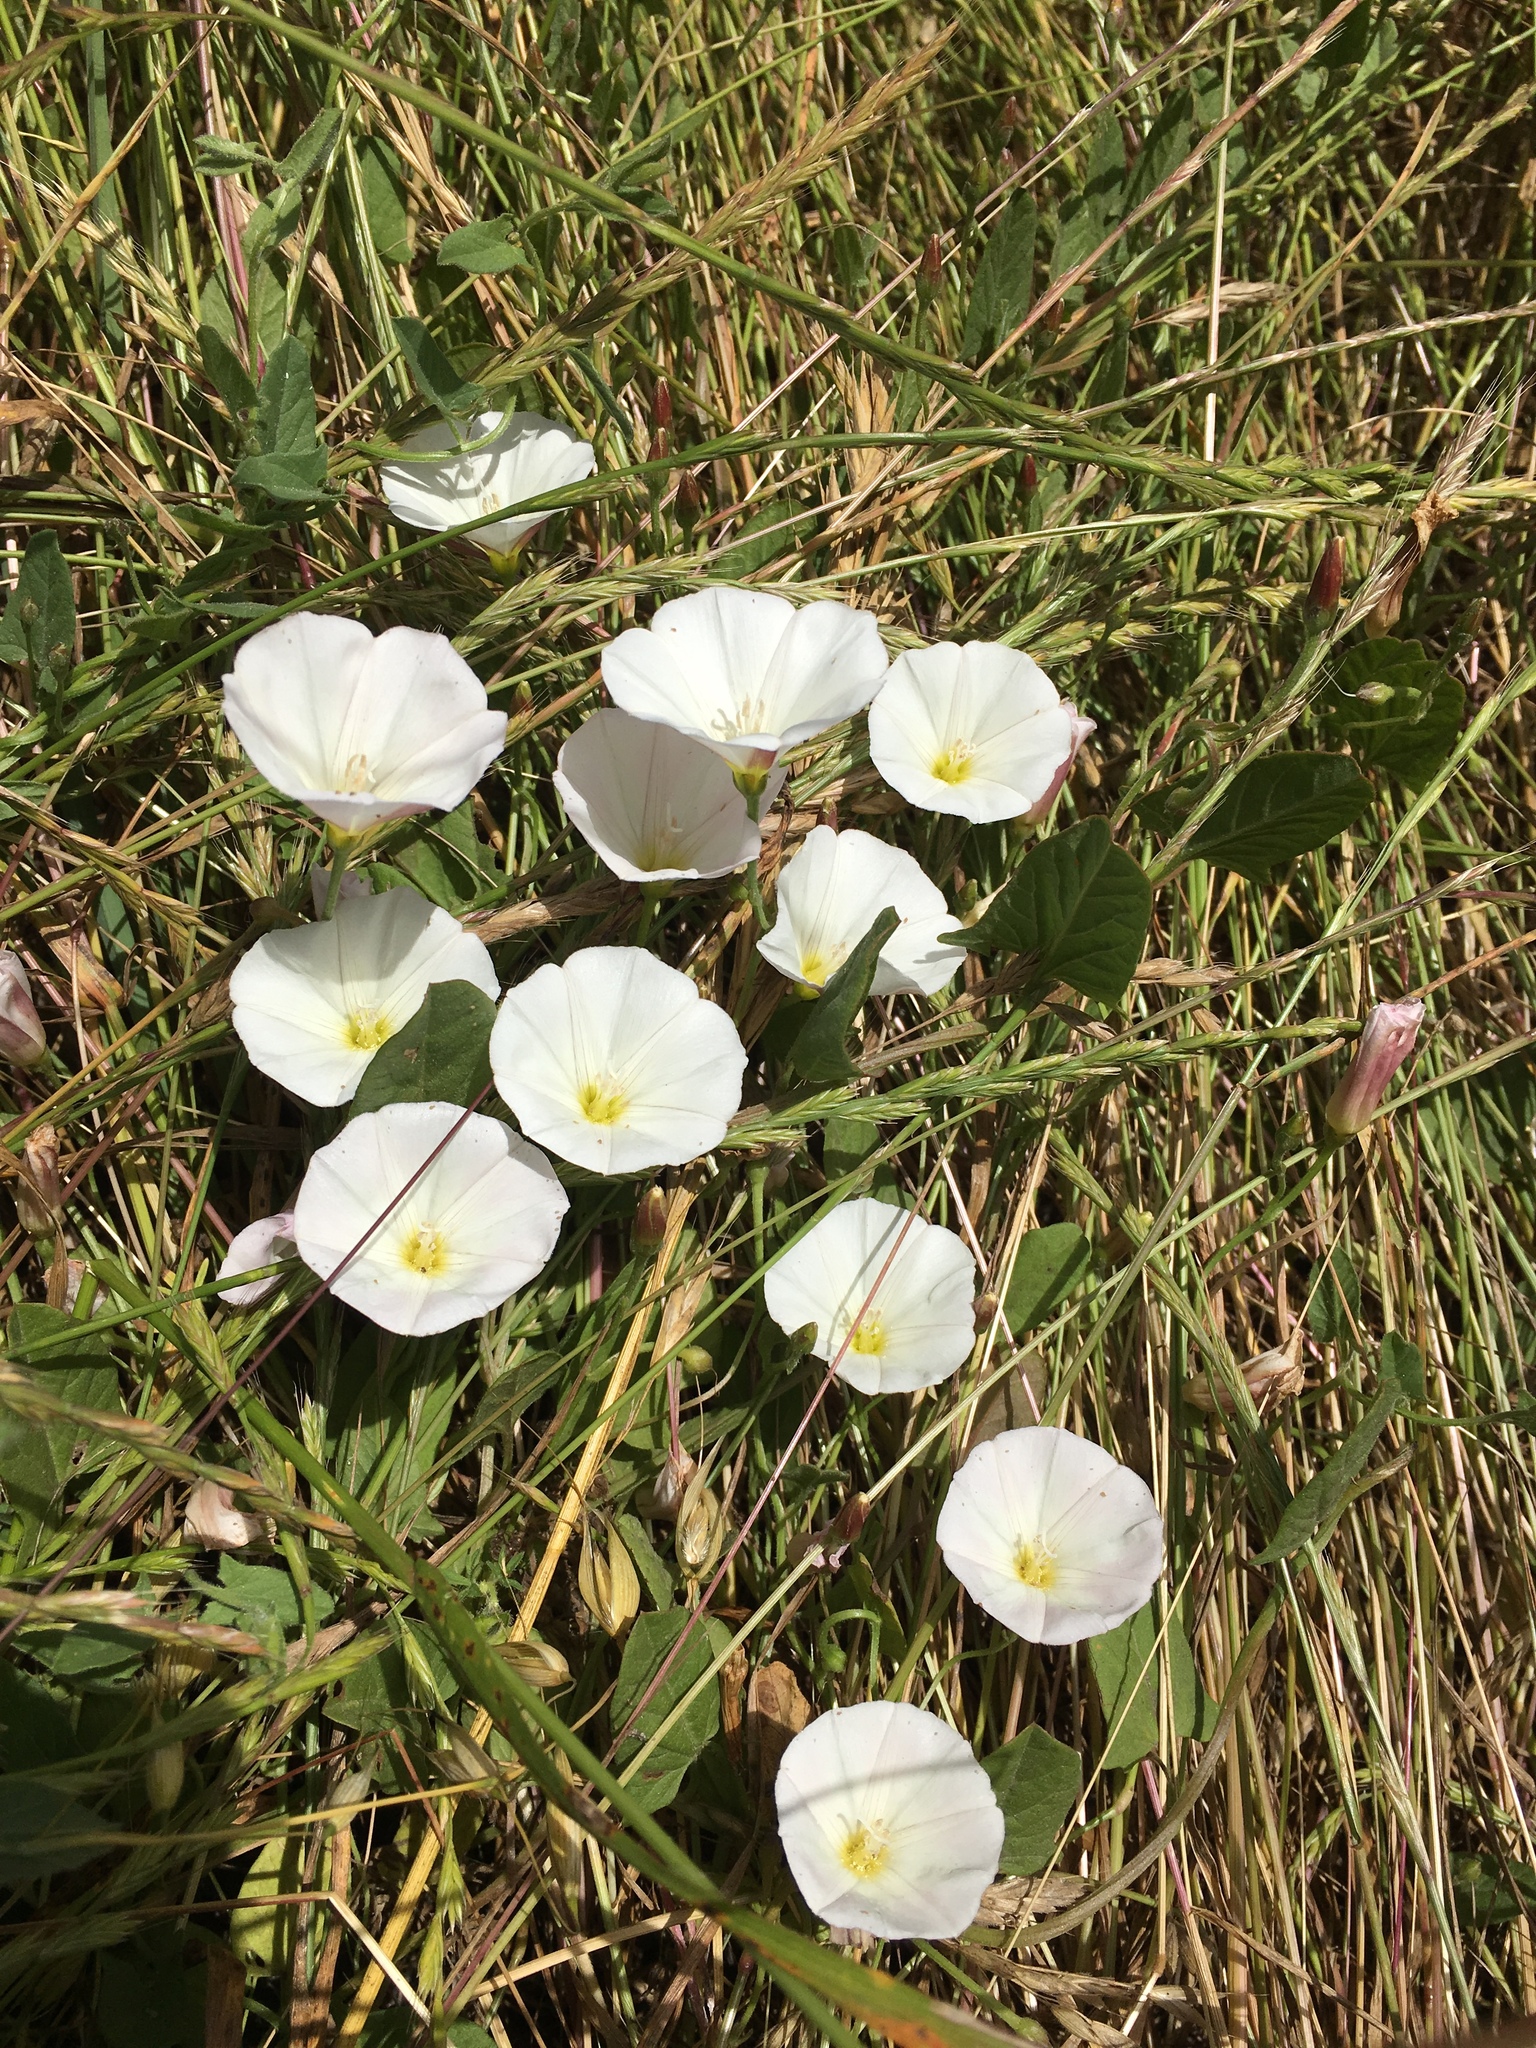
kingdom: Plantae
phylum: Tracheophyta
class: Magnoliopsida
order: Solanales
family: Convolvulaceae
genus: Convolvulus
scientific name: Convolvulus arvensis
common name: Field bindweed
